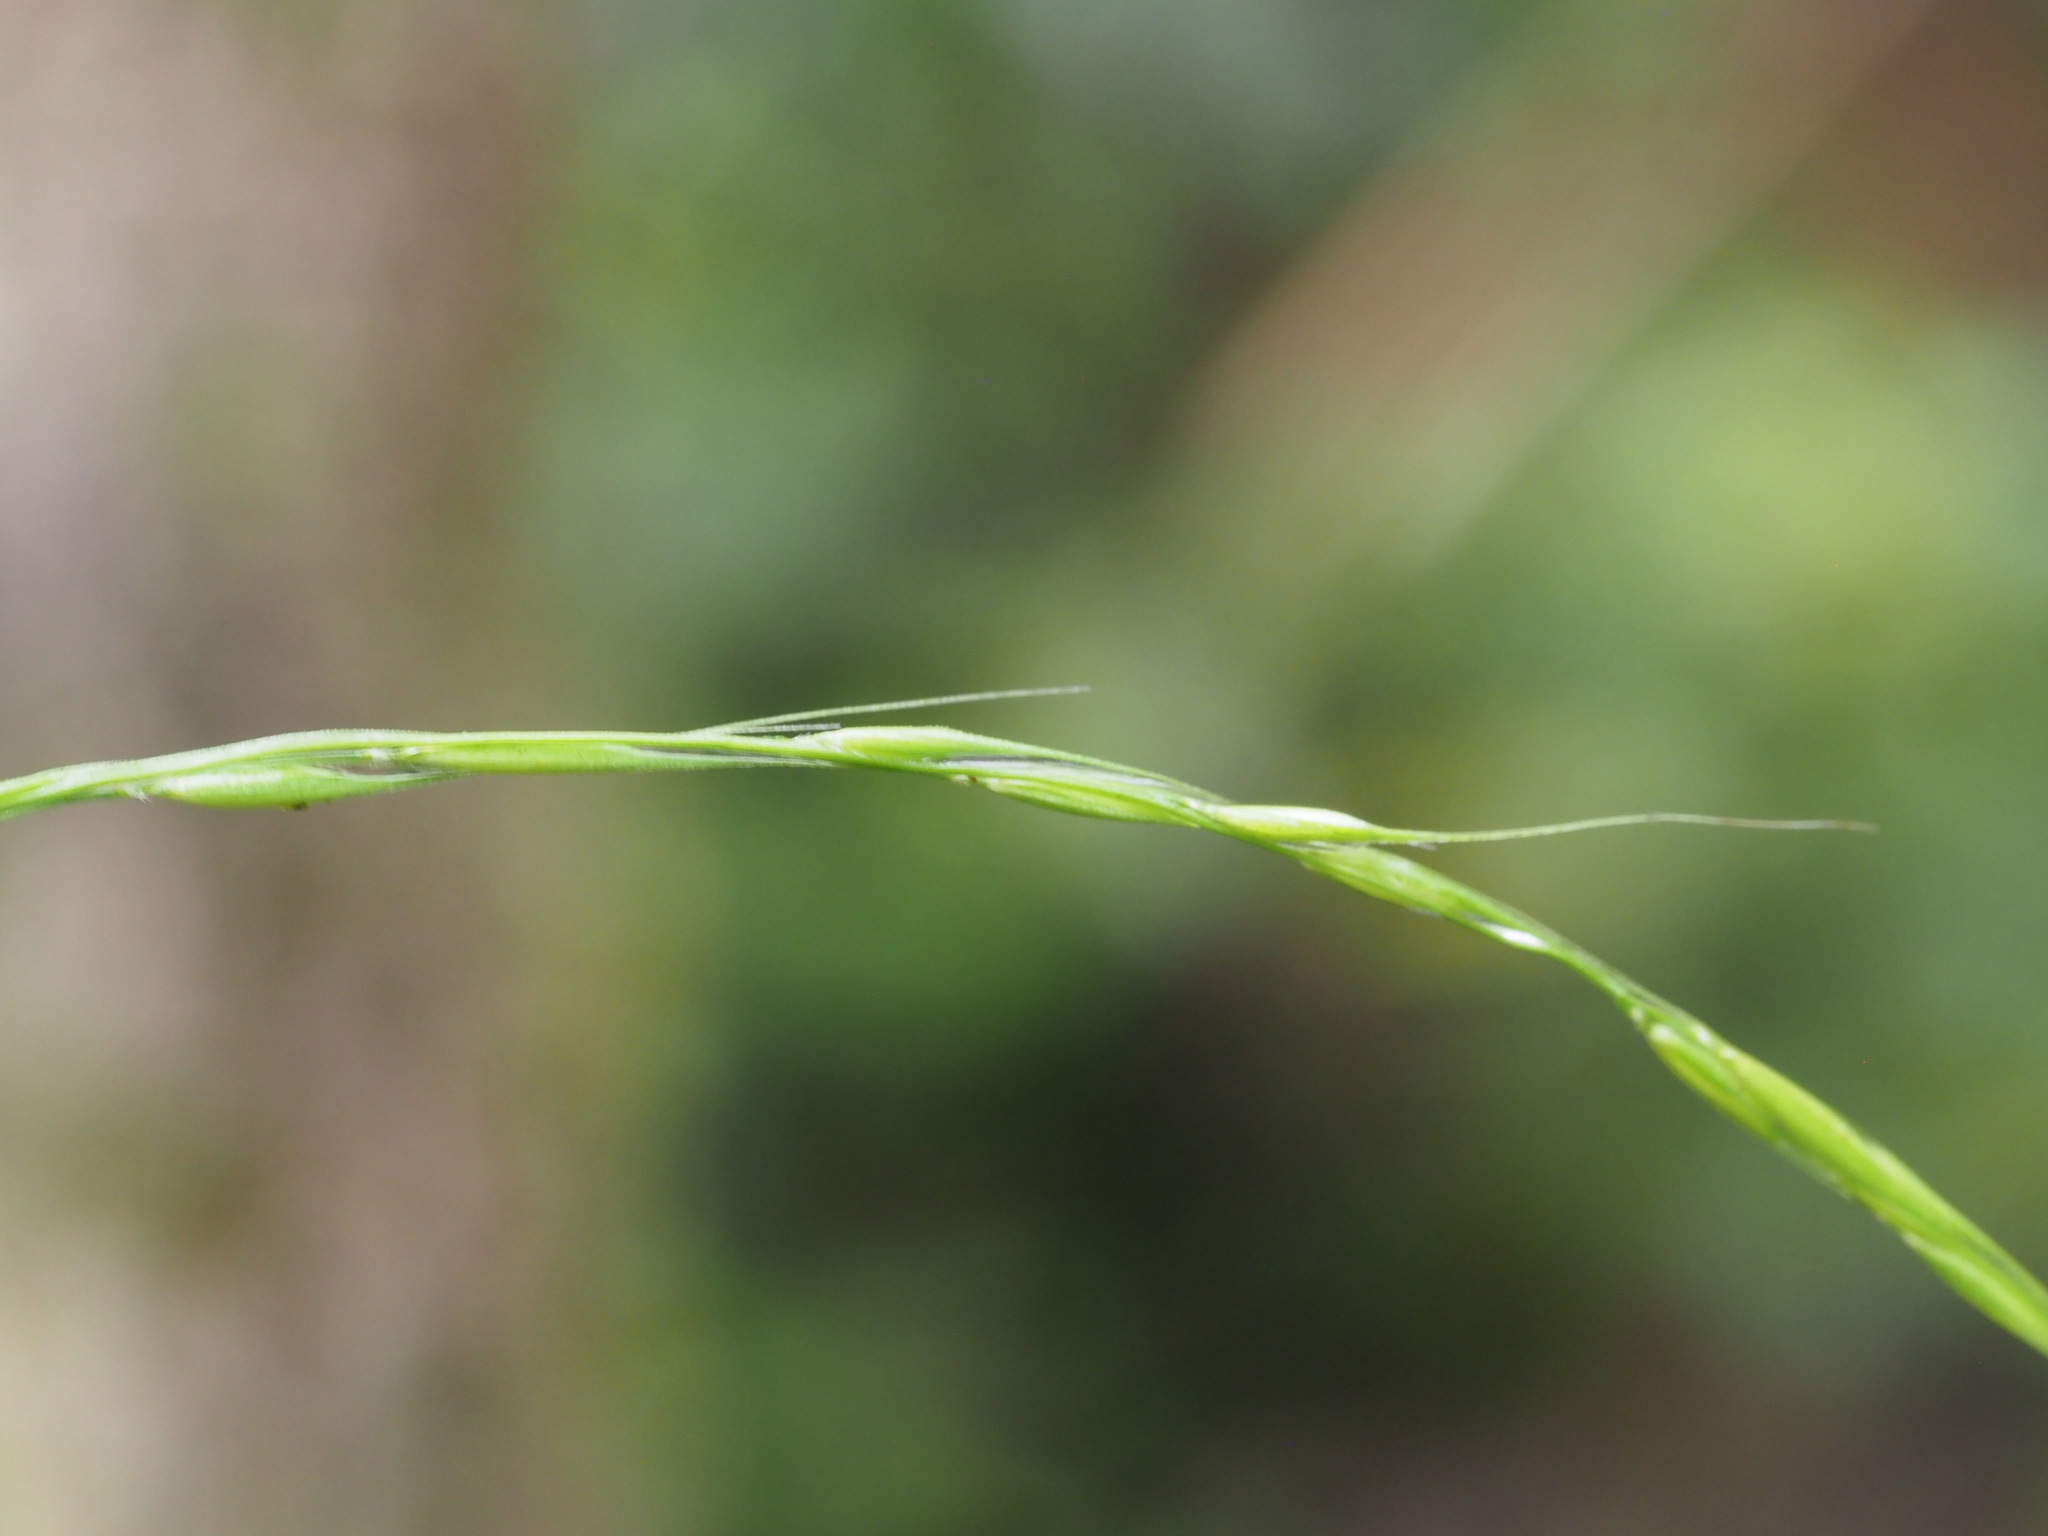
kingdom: Plantae
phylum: Tracheophyta
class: Liliopsida
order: Poales
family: Poaceae
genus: Microlaena
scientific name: Microlaena stipoides
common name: Meadow ricegrass
